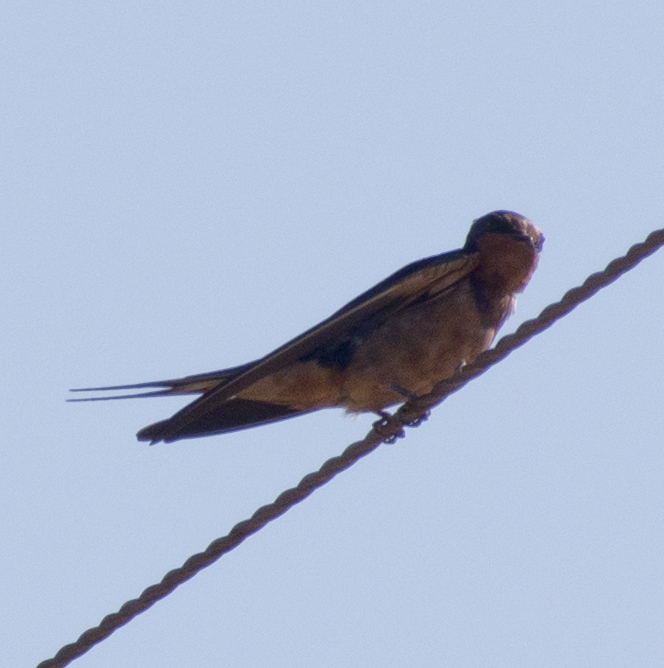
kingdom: Animalia
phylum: Chordata
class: Aves
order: Passeriformes
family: Hirundinidae
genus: Hirundo
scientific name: Hirundo rustica
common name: Barn swallow
